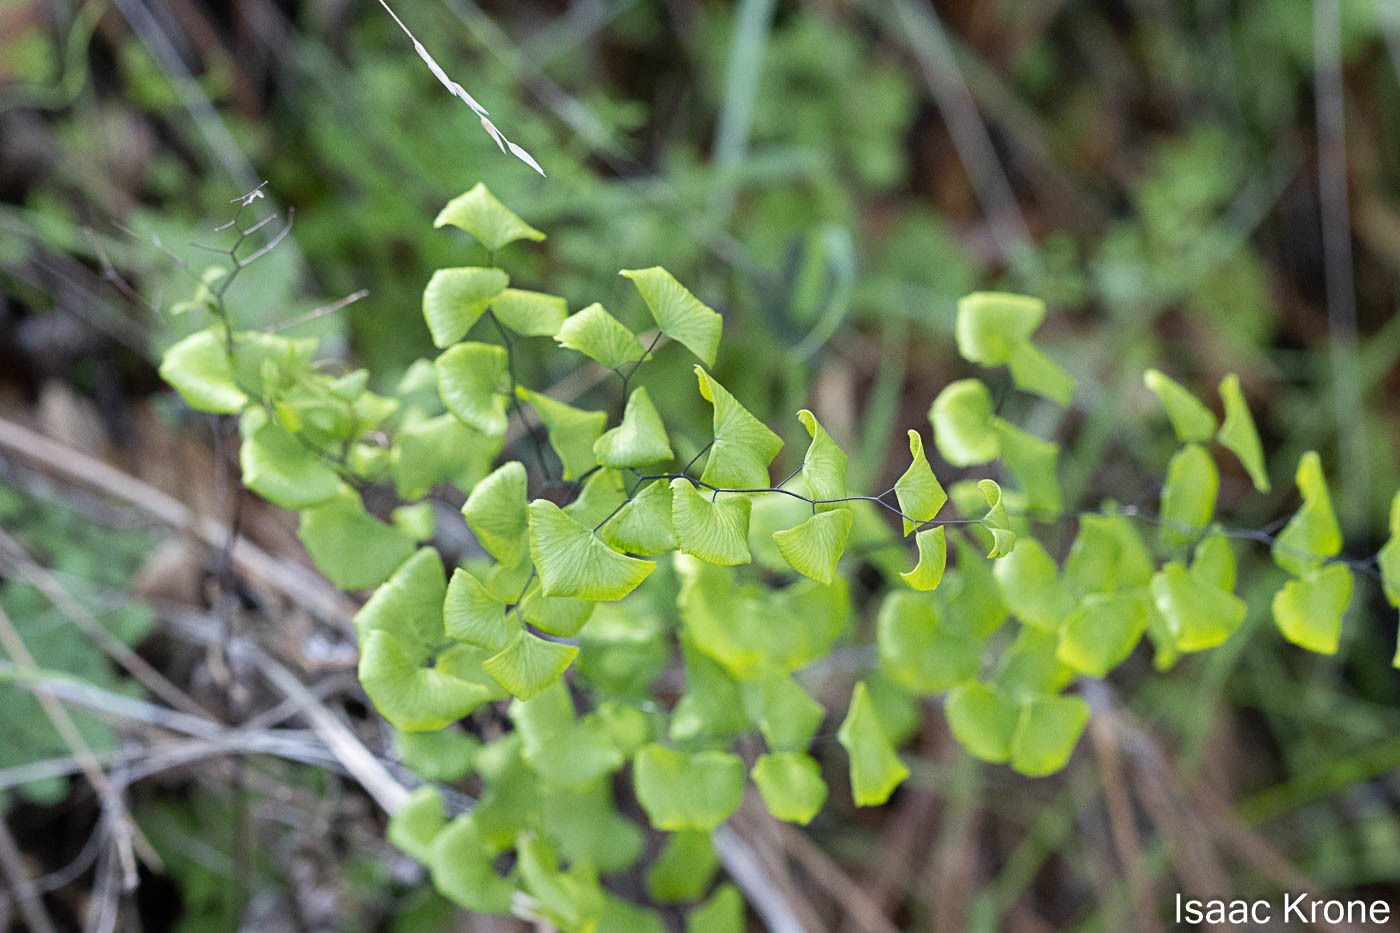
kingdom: Plantae
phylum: Tracheophyta
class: Polypodiopsida
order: Polypodiales
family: Pteridaceae
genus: Adiantum
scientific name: Adiantum jordanii
